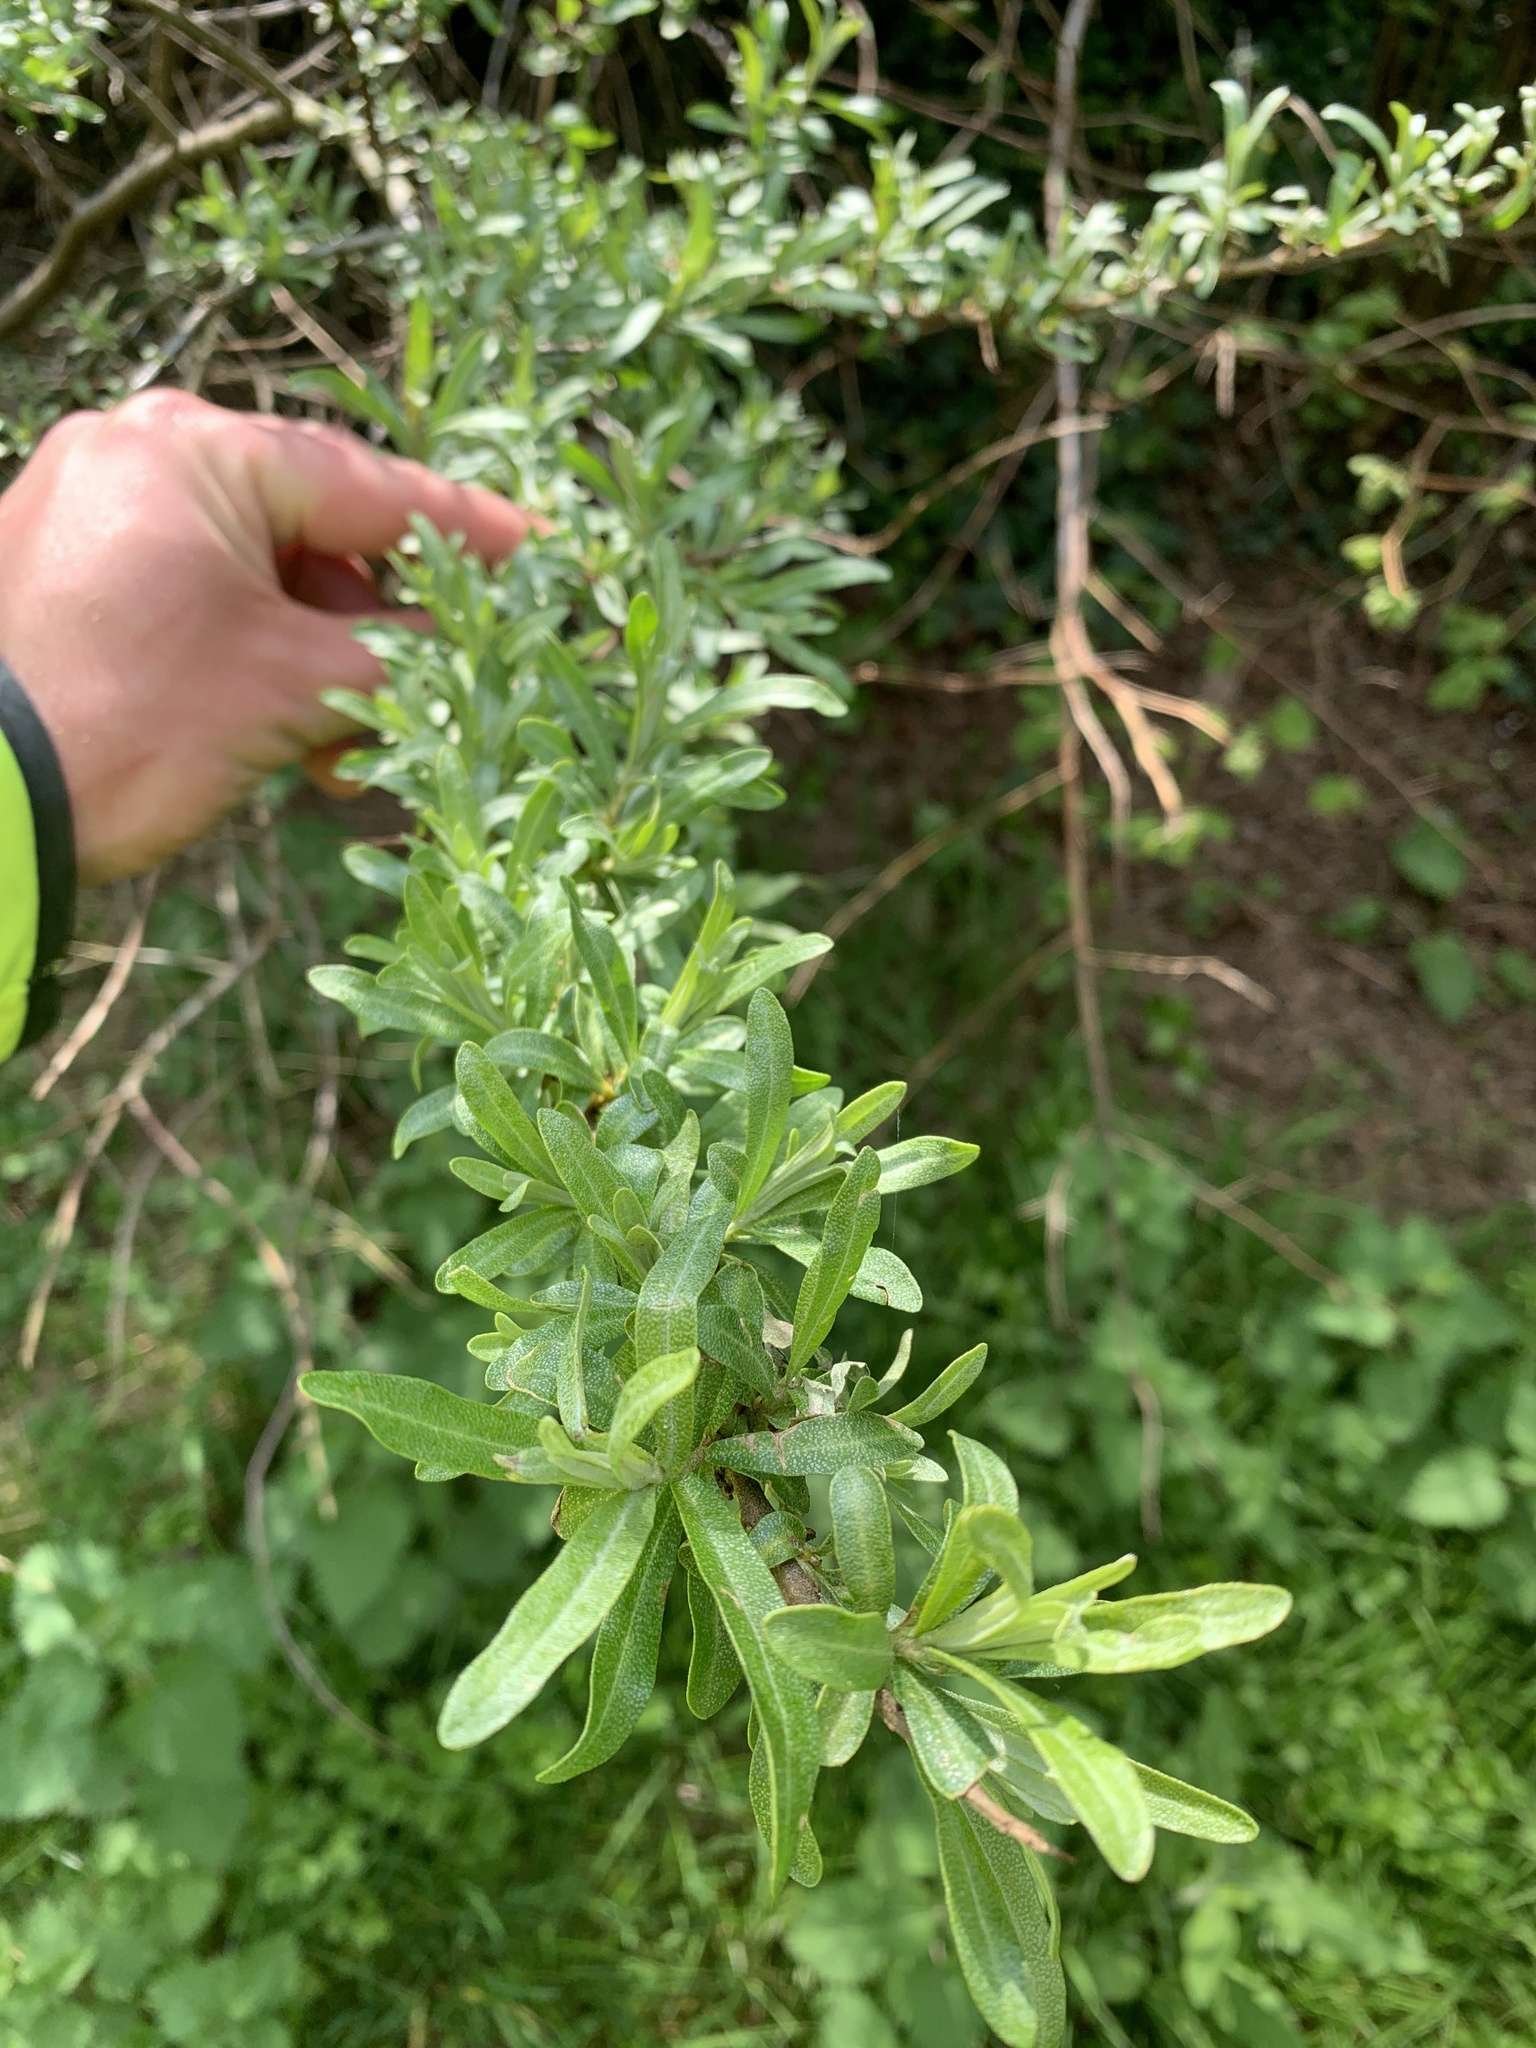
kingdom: Plantae
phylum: Tracheophyta
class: Magnoliopsida
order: Rosales
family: Elaeagnaceae
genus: Hippophae
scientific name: Hippophae rhamnoides
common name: Sea-buckthorn
